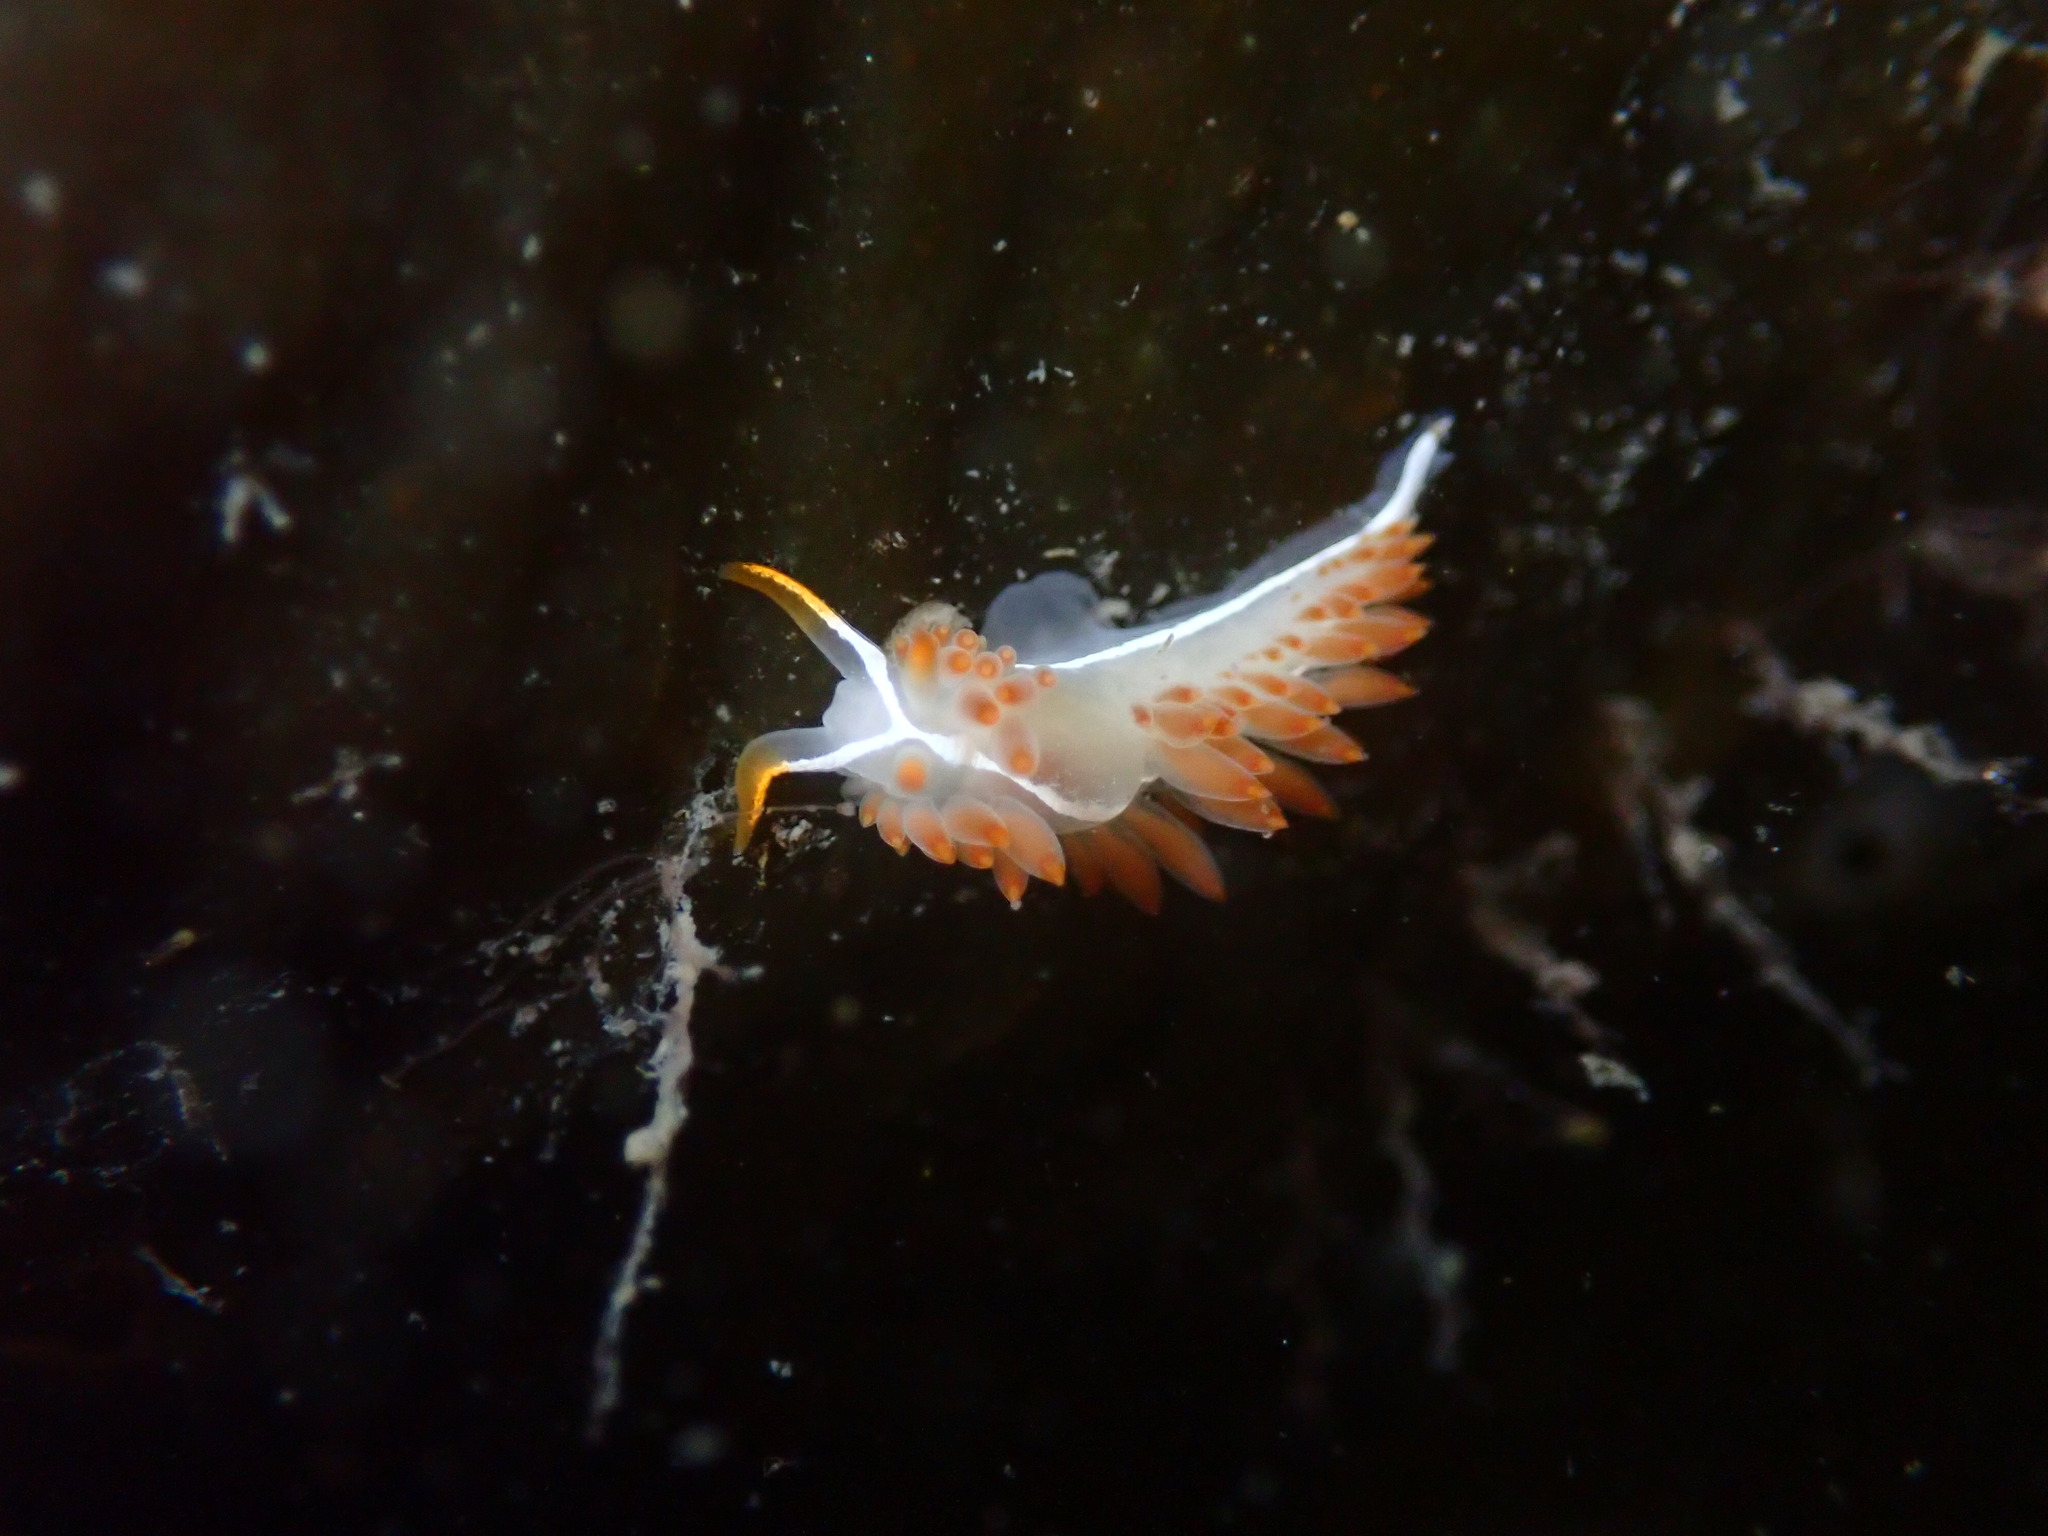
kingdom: Animalia
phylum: Mollusca
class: Gastropoda
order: Nudibranchia
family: Coryphellidae
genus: Coryphella
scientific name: Coryphella trilineata
